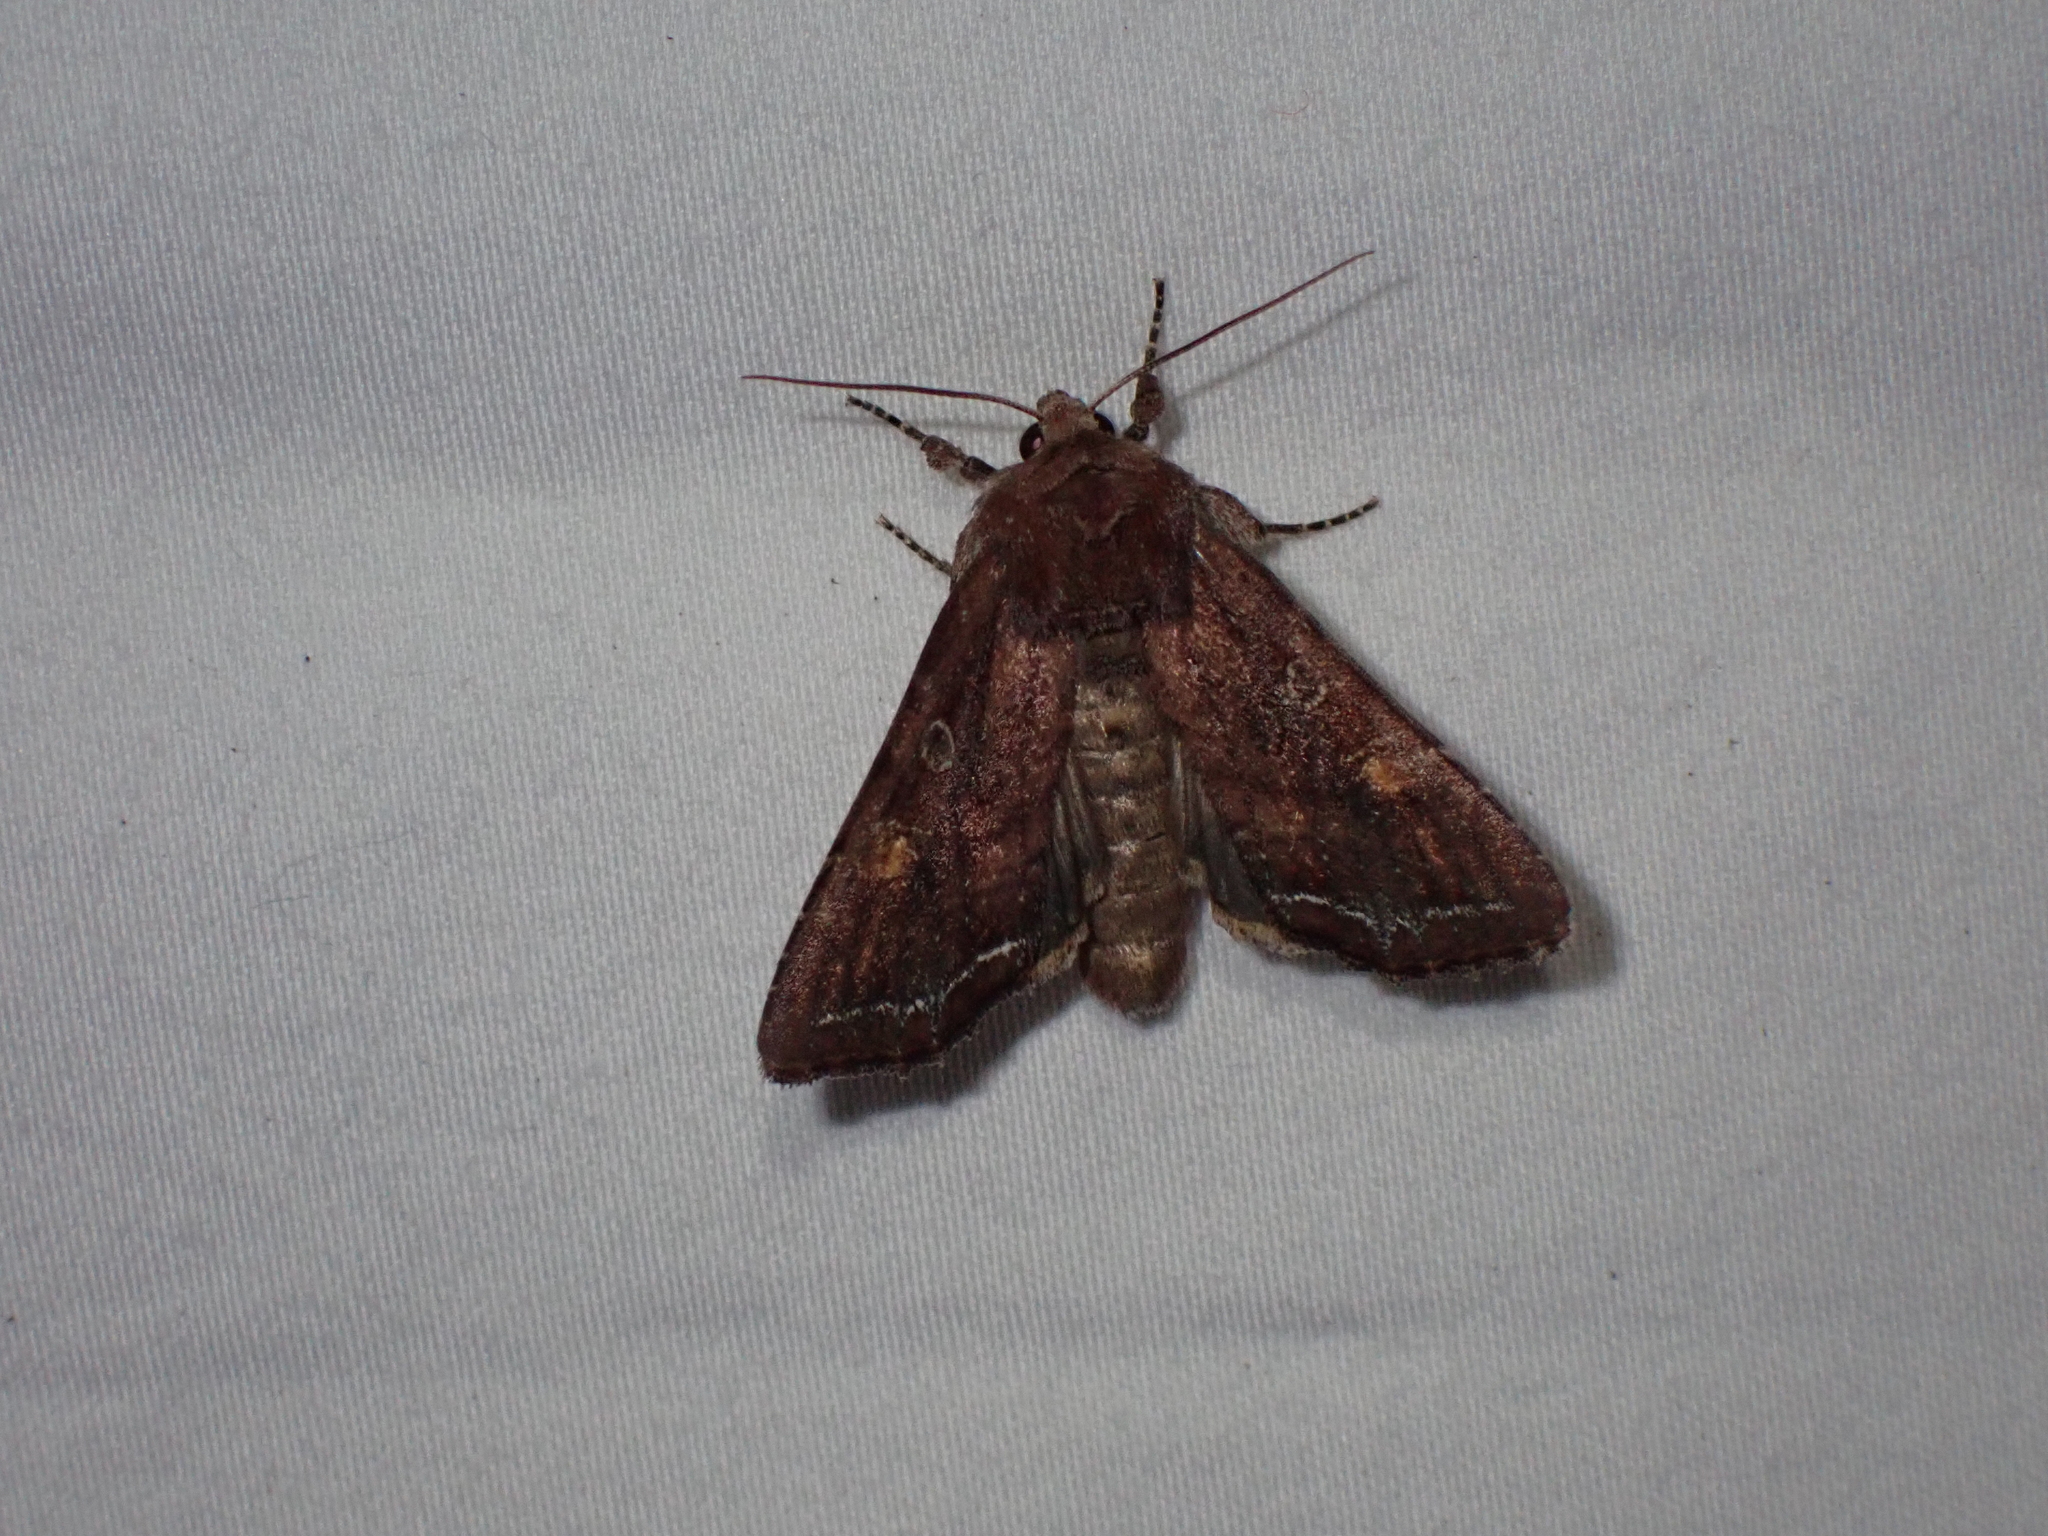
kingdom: Animalia
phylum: Arthropoda
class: Insecta
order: Lepidoptera
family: Noctuidae
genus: Lacanobia
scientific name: Lacanobia oleracea
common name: Bright-line brown-eye
